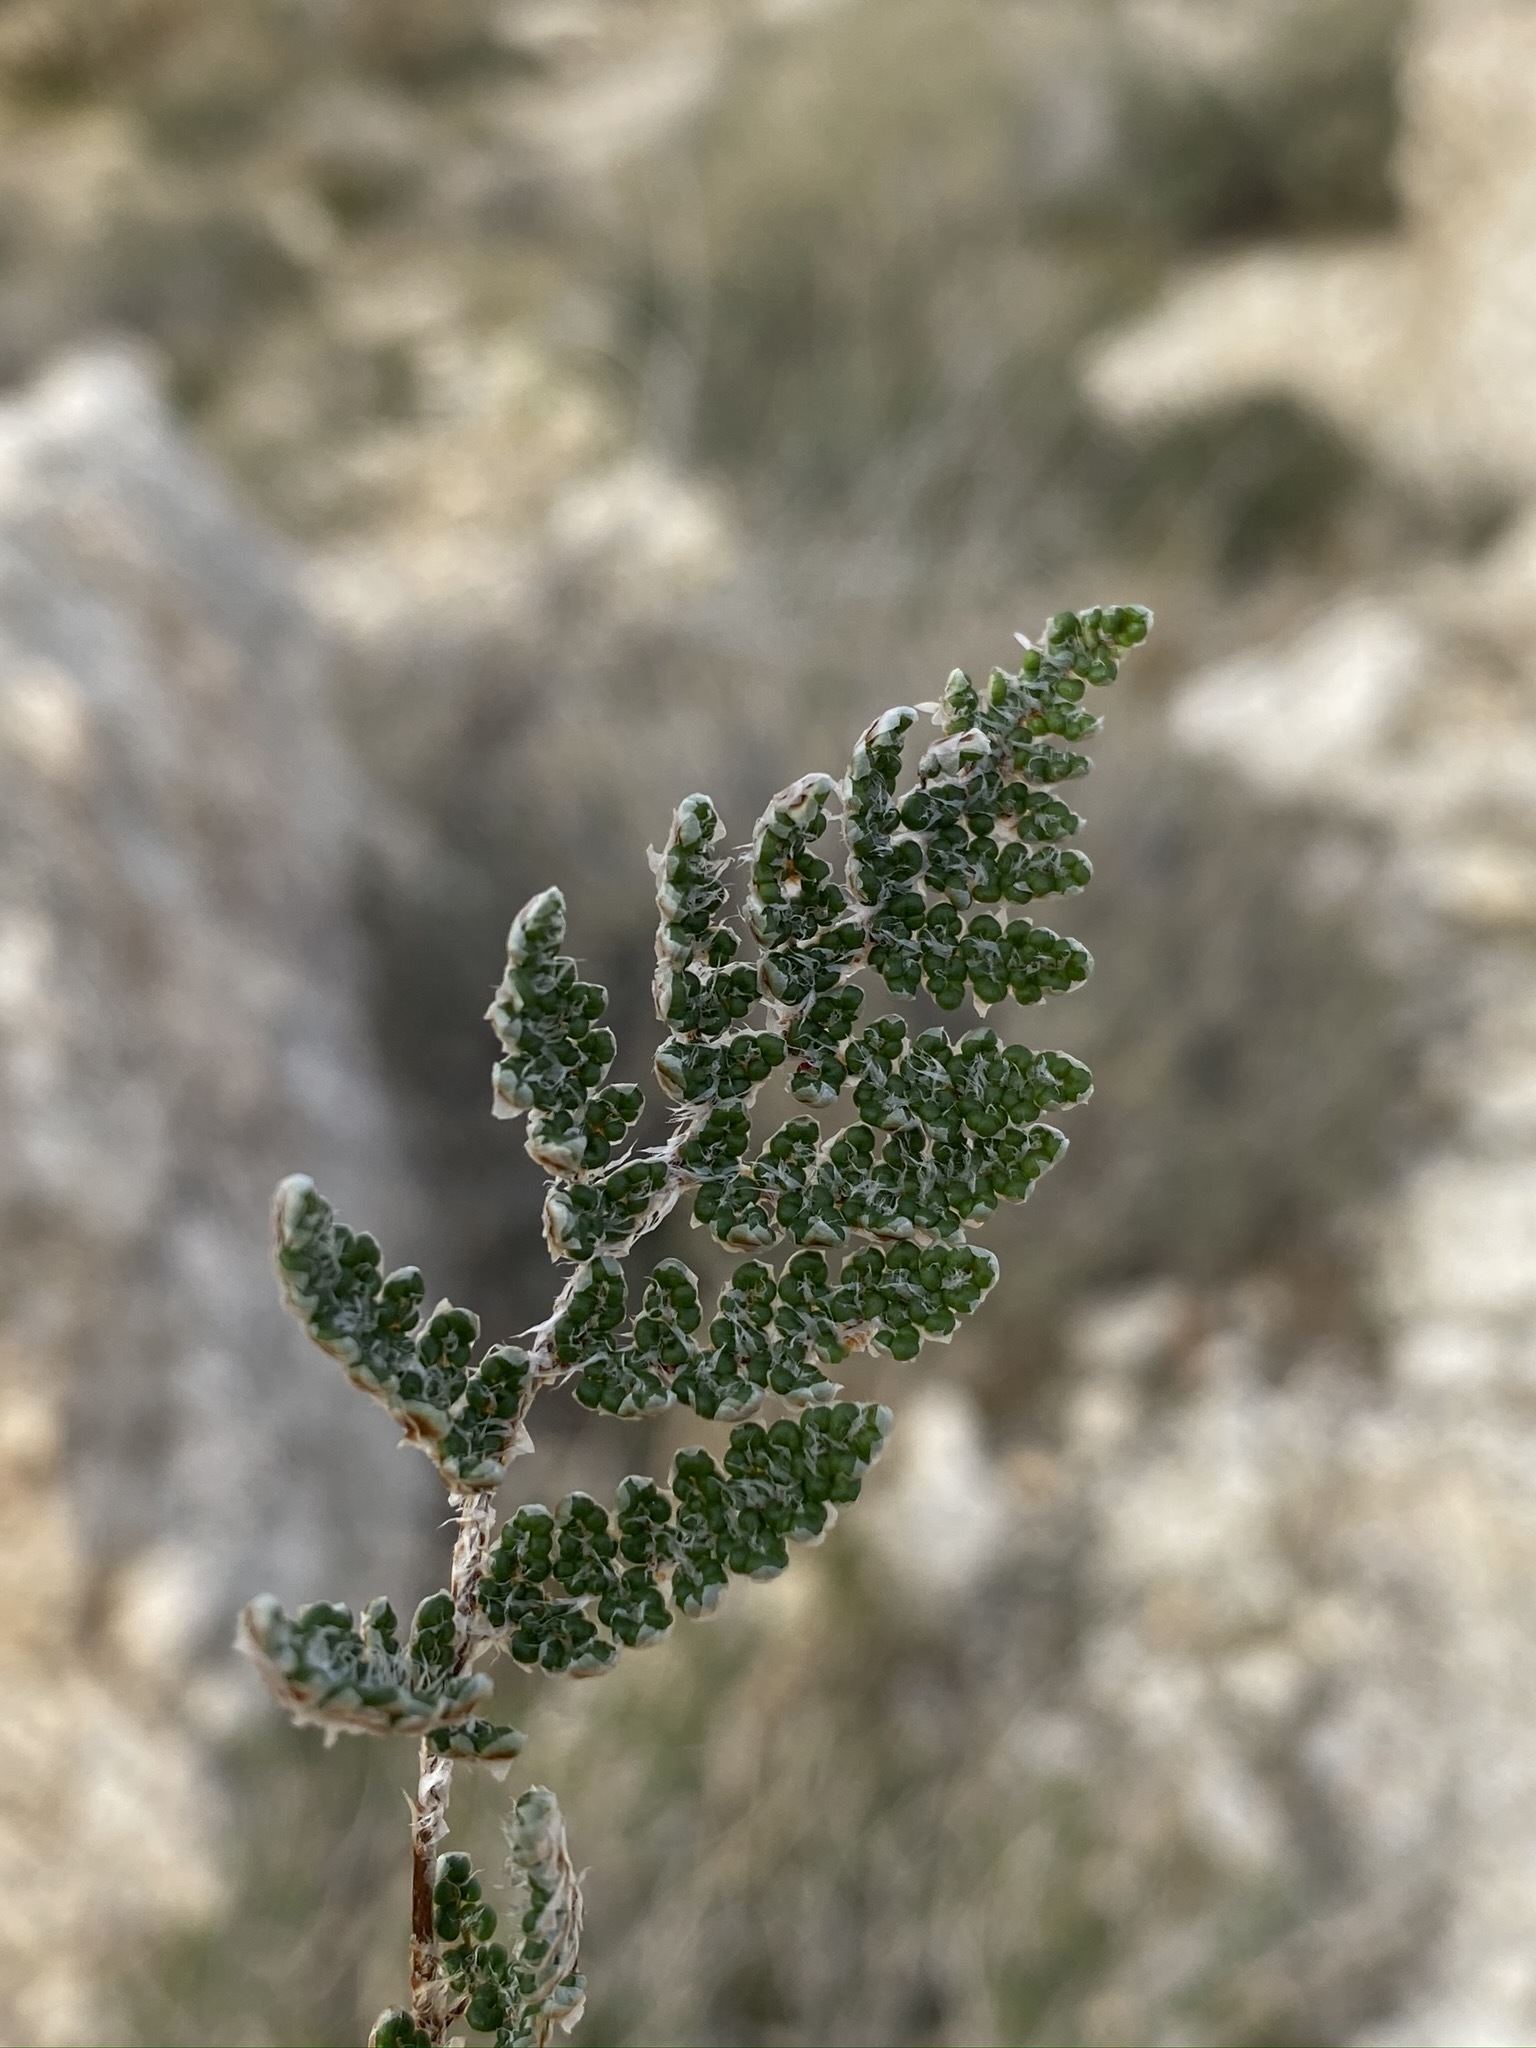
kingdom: Plantae
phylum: Tracheophyta
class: Polypodiopsida
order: Polypodiales
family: Pteridaceae
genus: Myriopteris
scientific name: Myriopteris covillei
